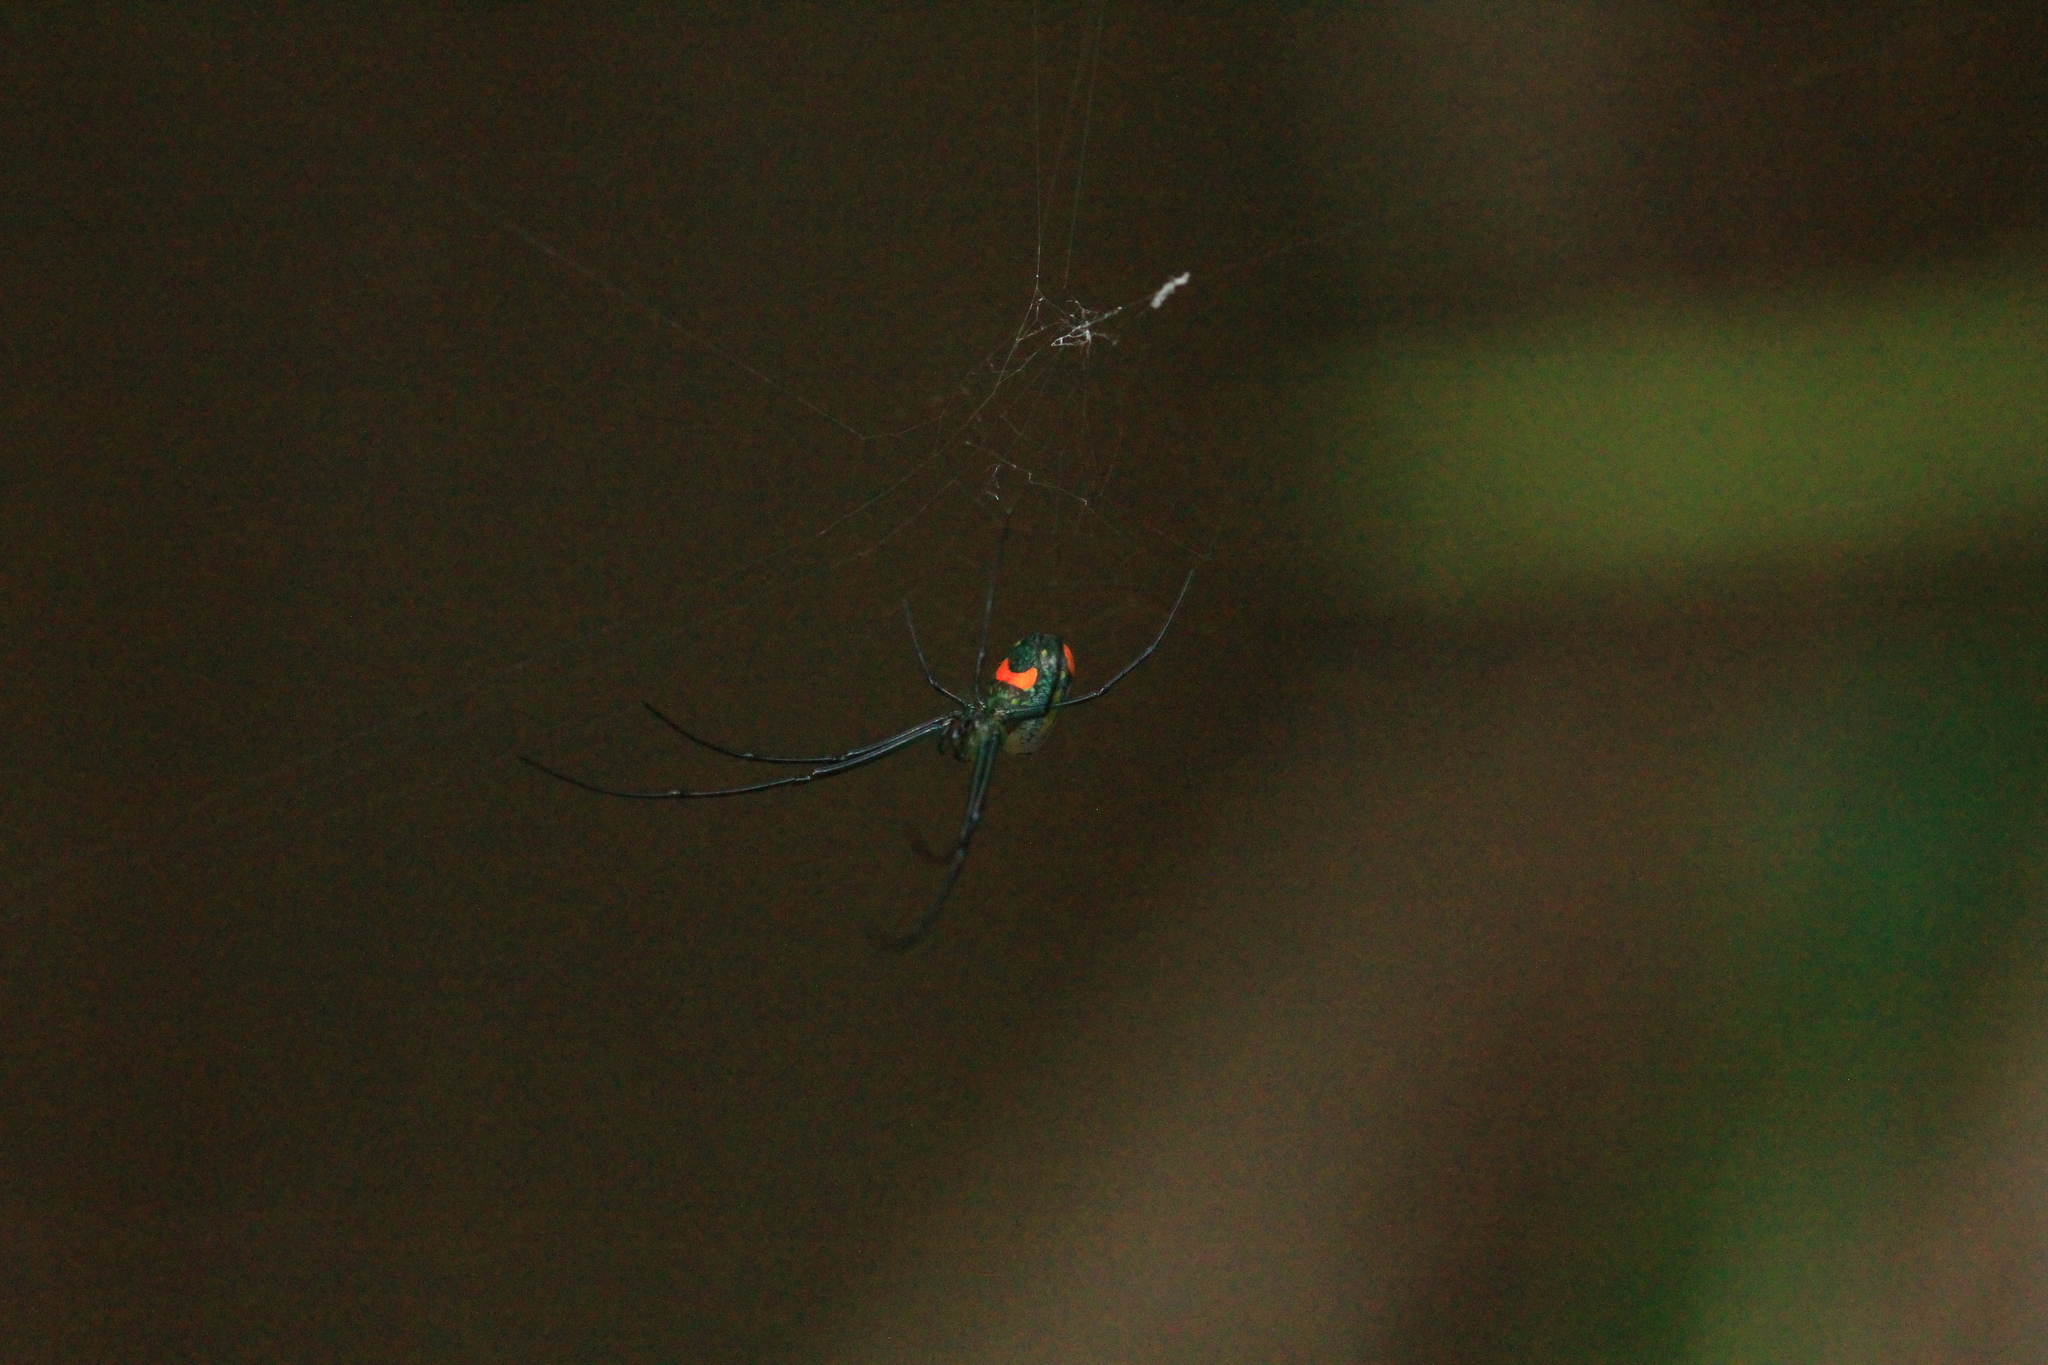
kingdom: Animalia
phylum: Arthropoda
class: Arachnida
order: Araneae
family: Tetragnathidae
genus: Leucauge
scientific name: Leucauge argyrobapta
